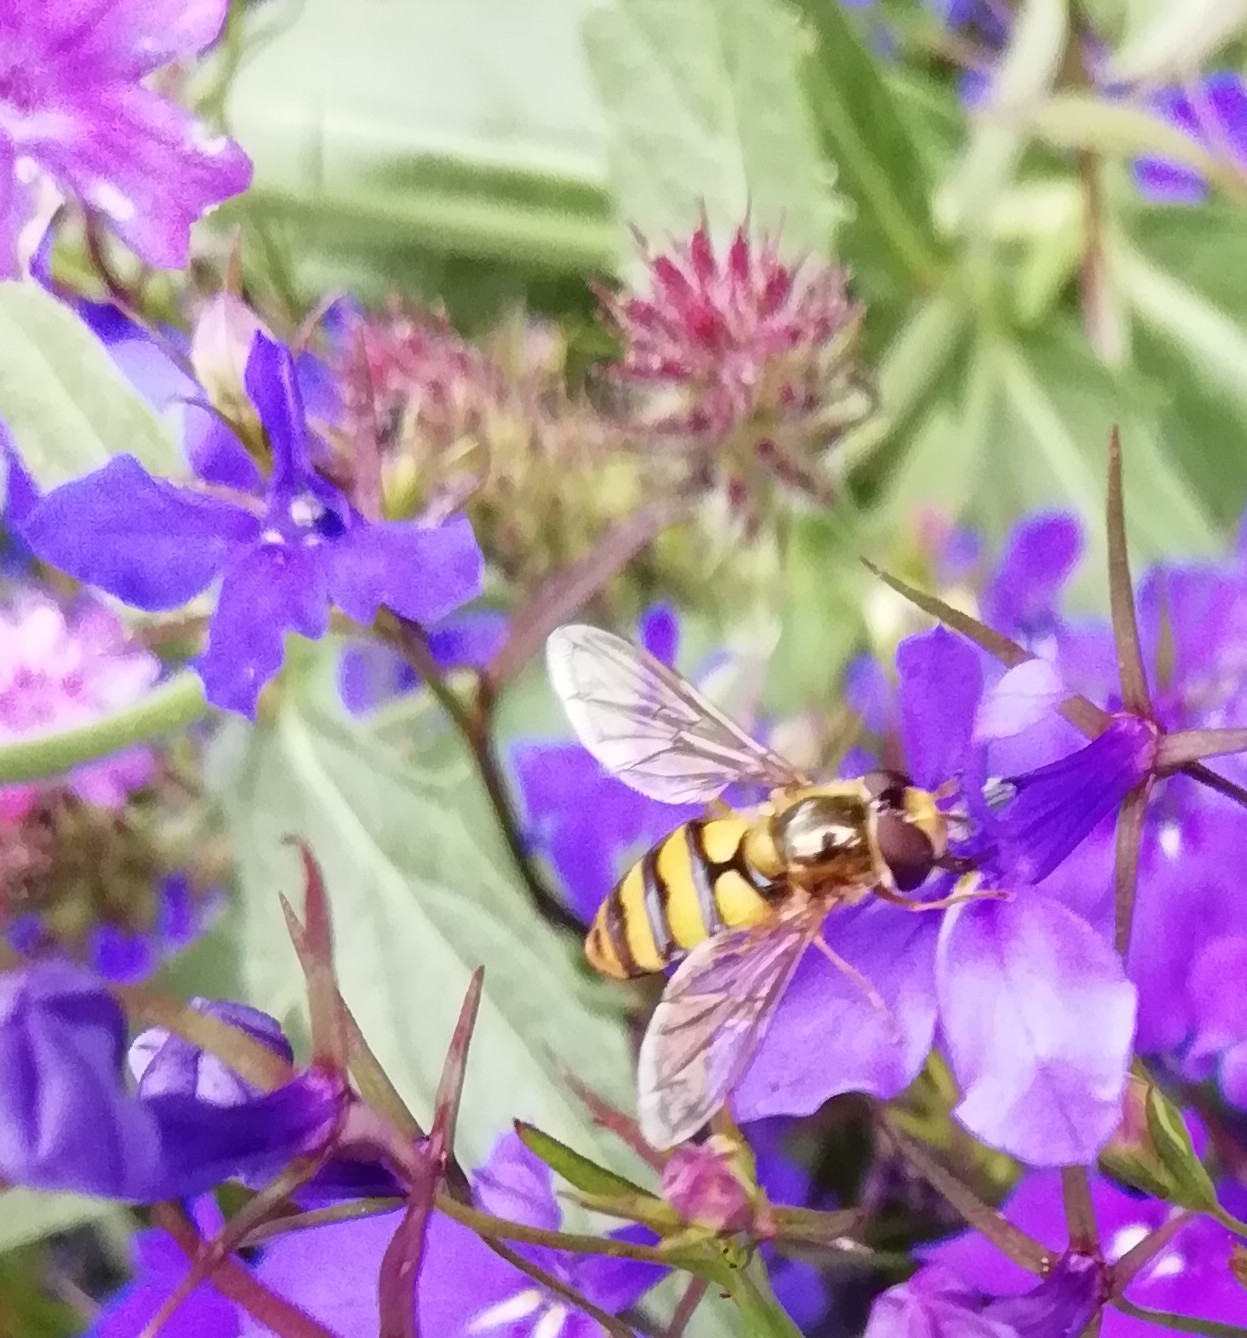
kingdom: Animalia
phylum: Arthropoda
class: Insecta
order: Diptera
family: Syrphidae
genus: Eupeodes
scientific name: Eupeodes latifasciatus
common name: Variable aphideater
